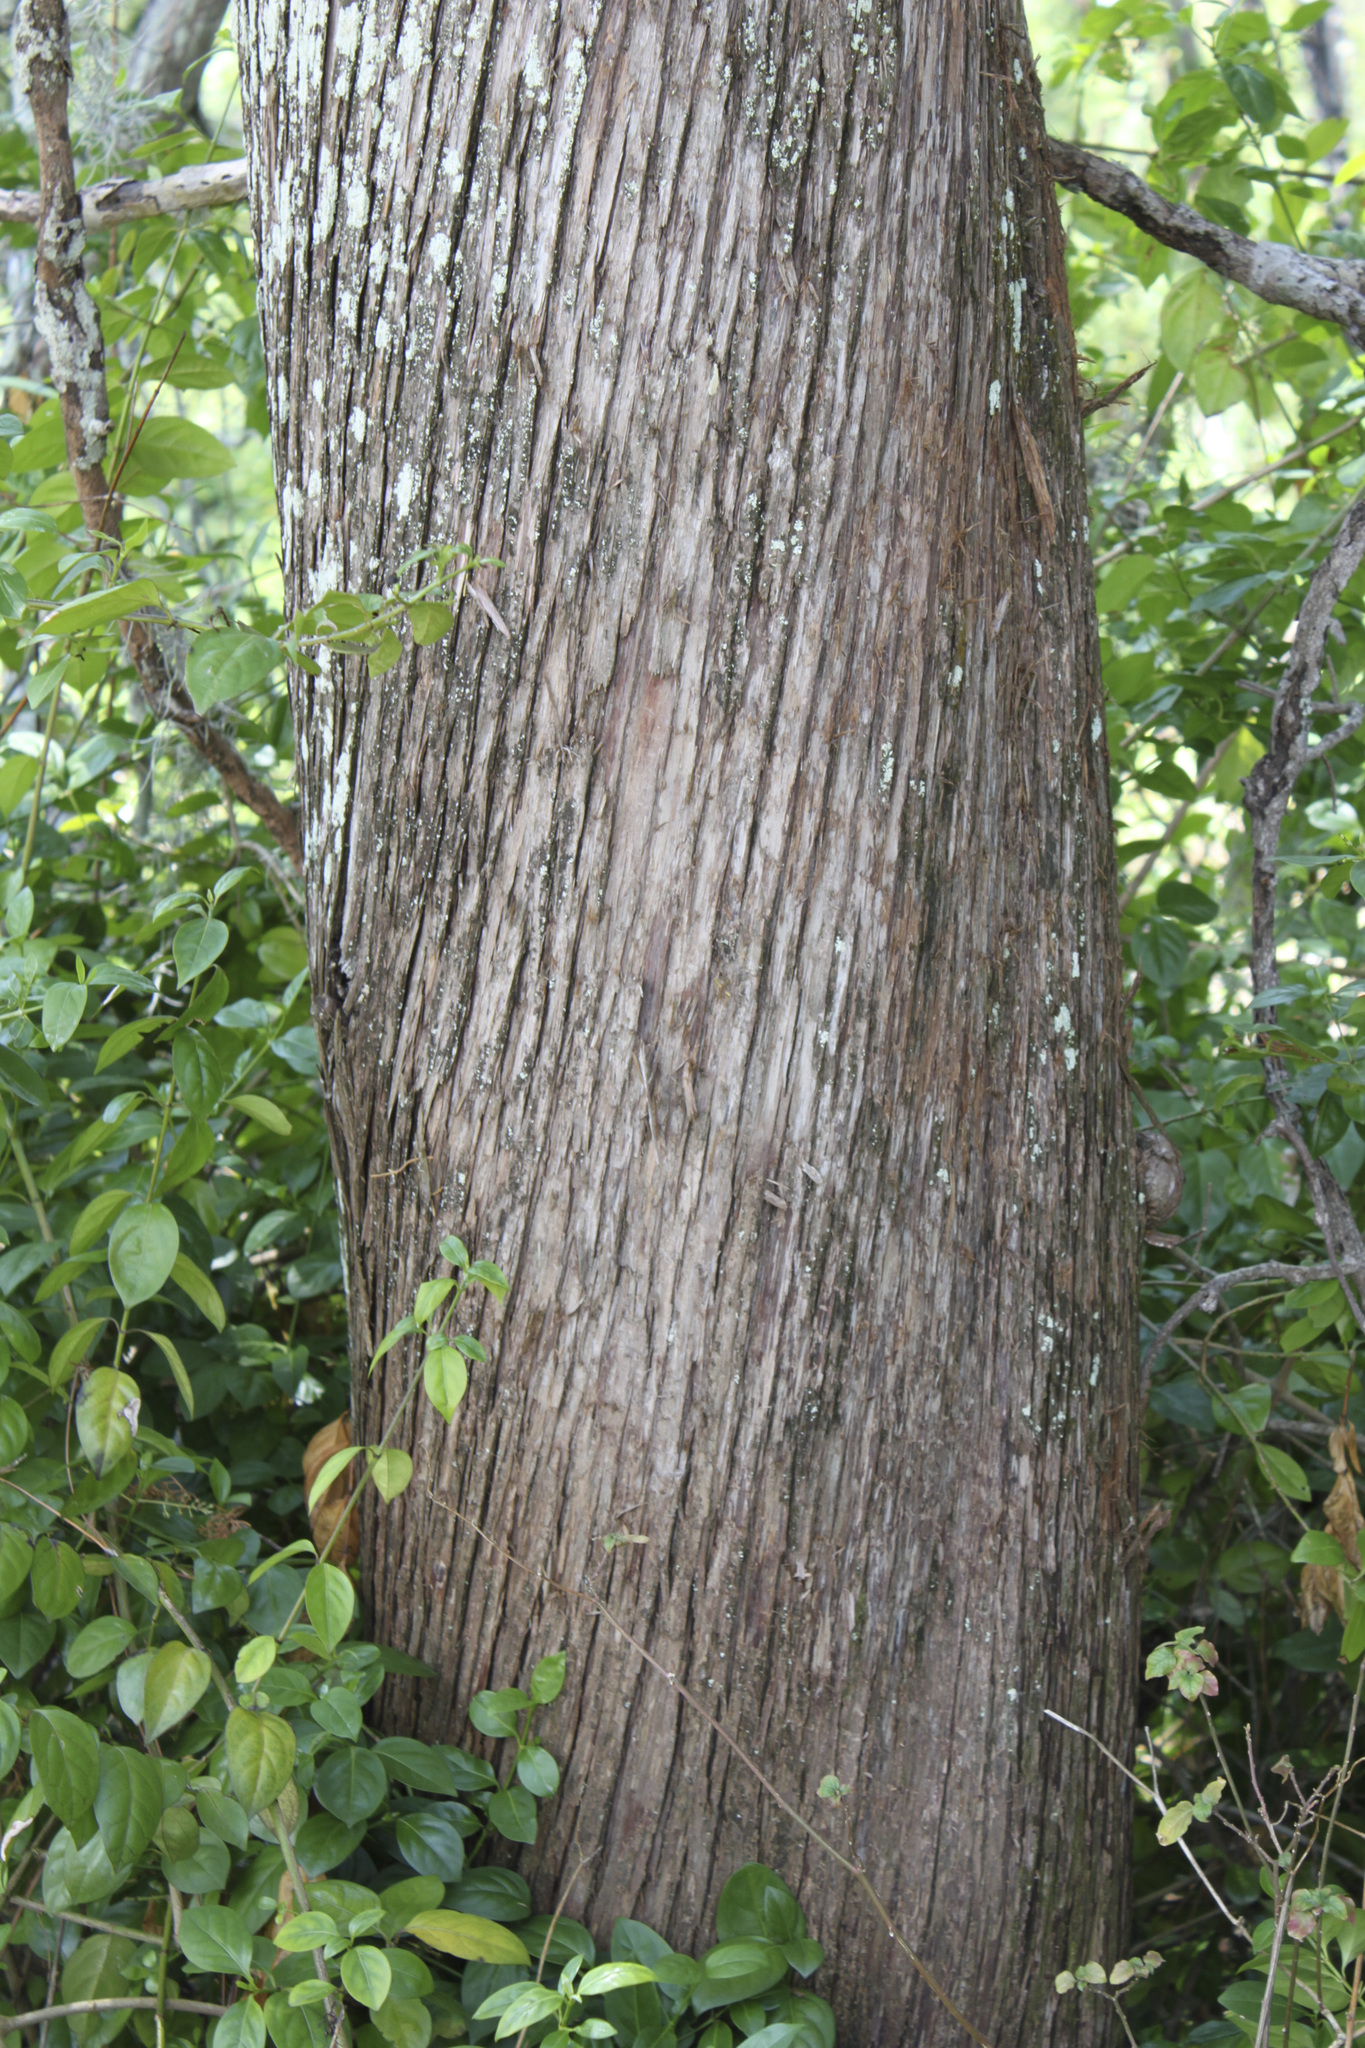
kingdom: Plantae
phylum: Tracheophyta
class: Pinopsida
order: Pinales
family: Cupressaceae
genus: Juniperus
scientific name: Juniperus virginiana
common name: Red juniper
